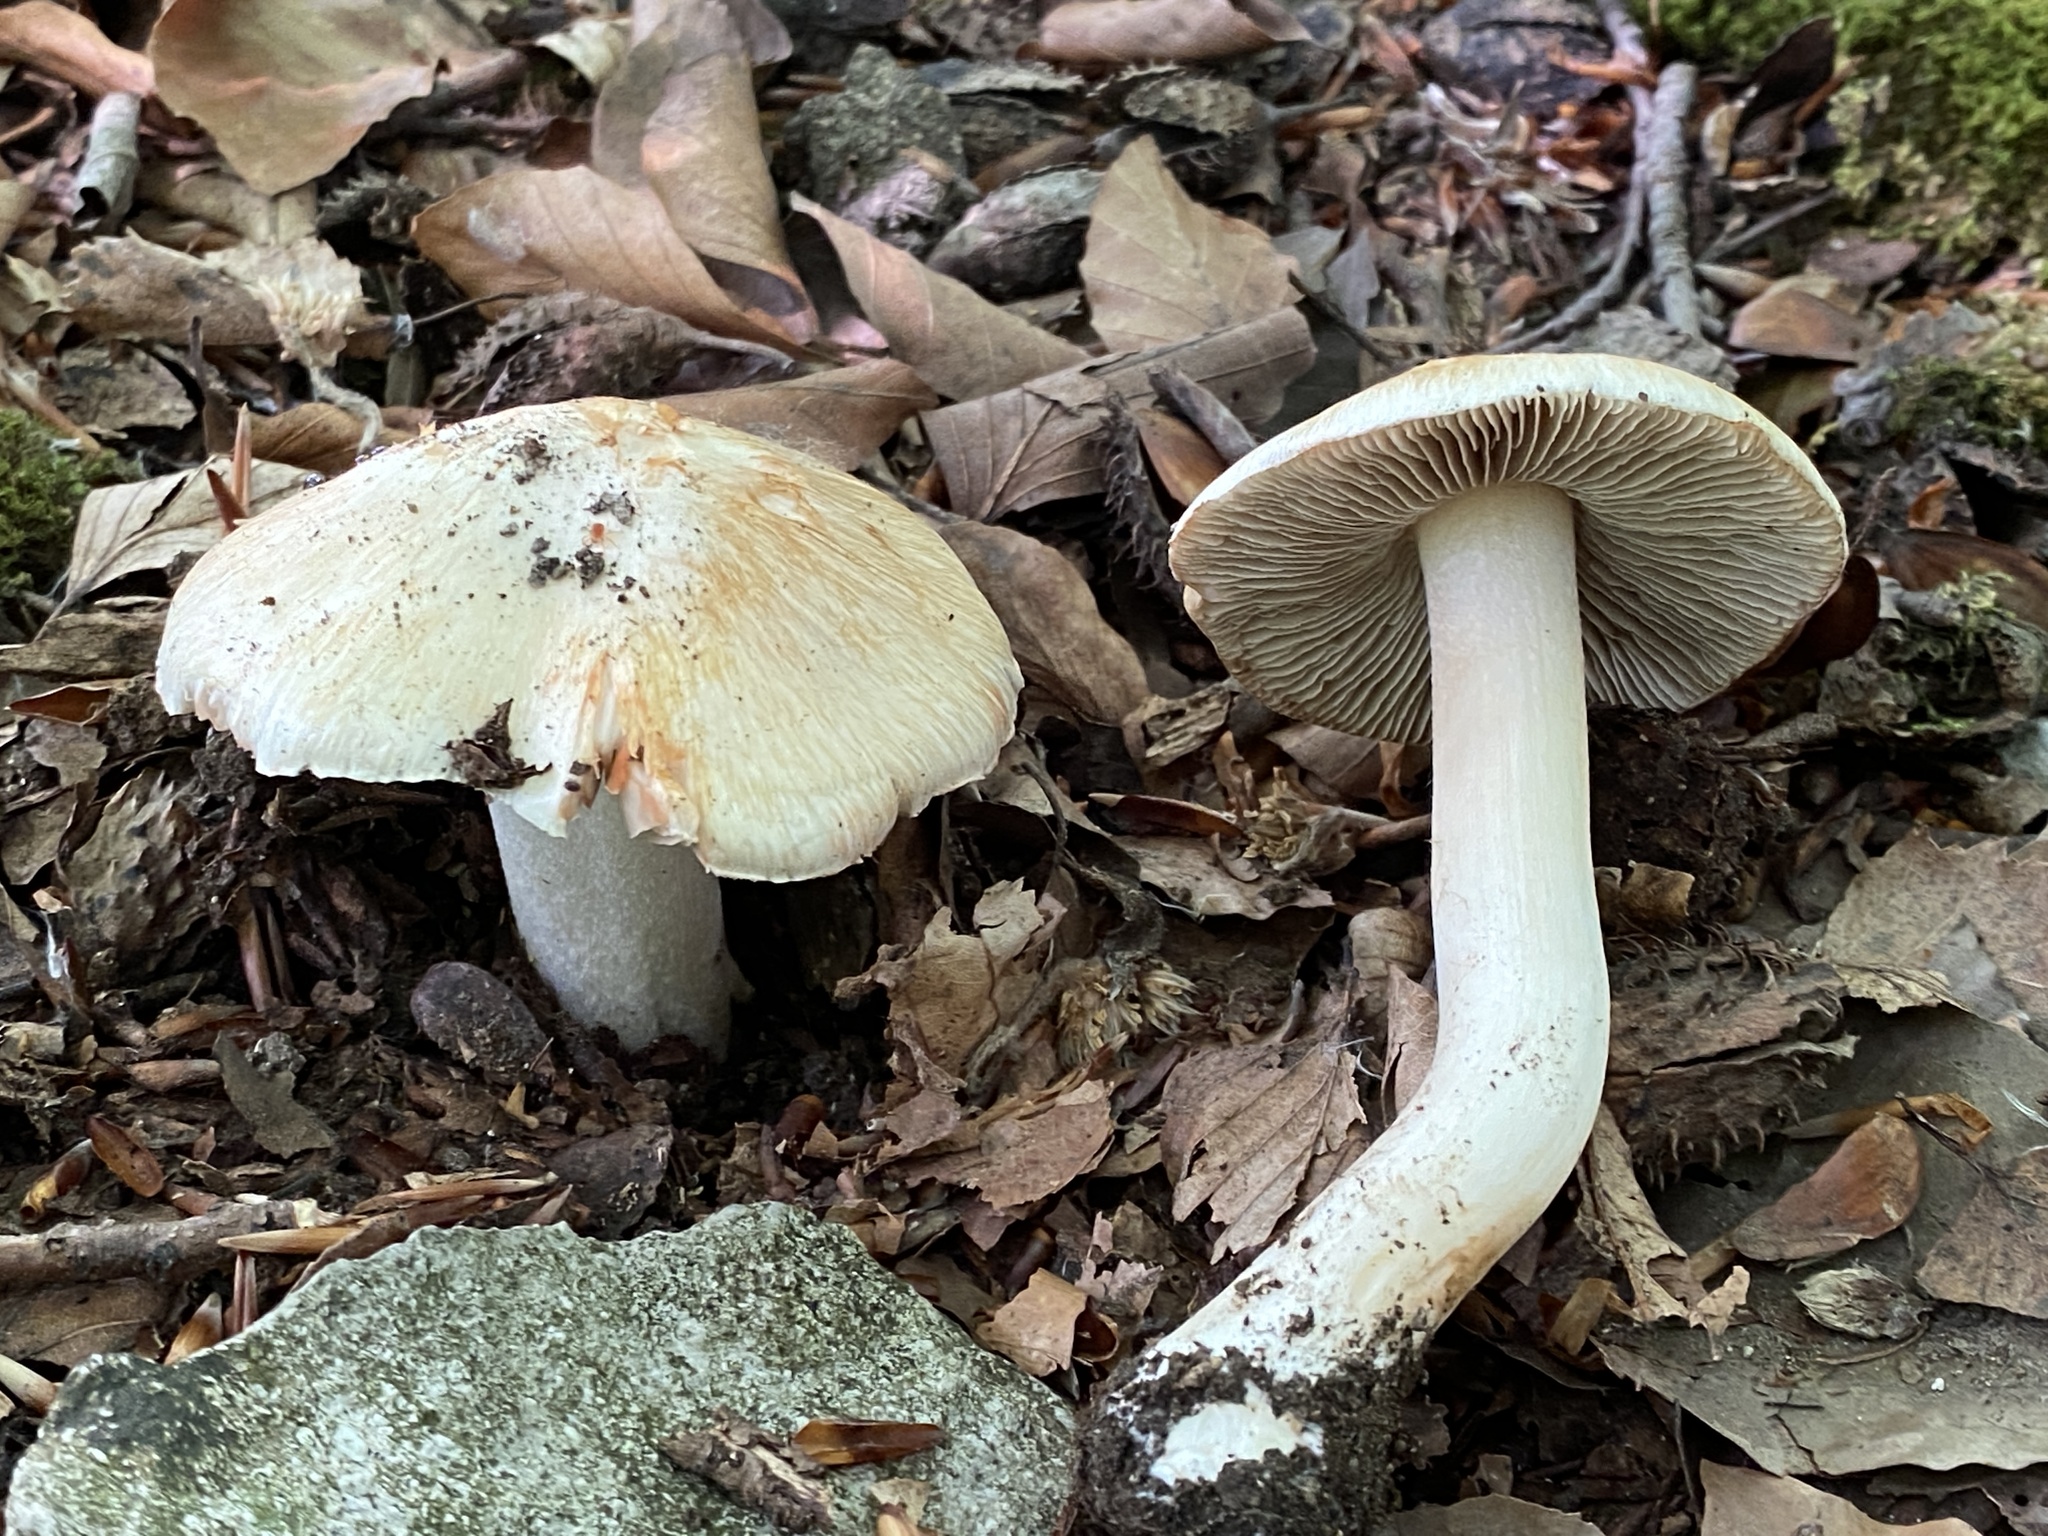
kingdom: Fungi
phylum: Basidiomycota
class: Agaricomycetes
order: Agaricales
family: Inocybaceae
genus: Inosperma
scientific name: Inosperma erubescens
